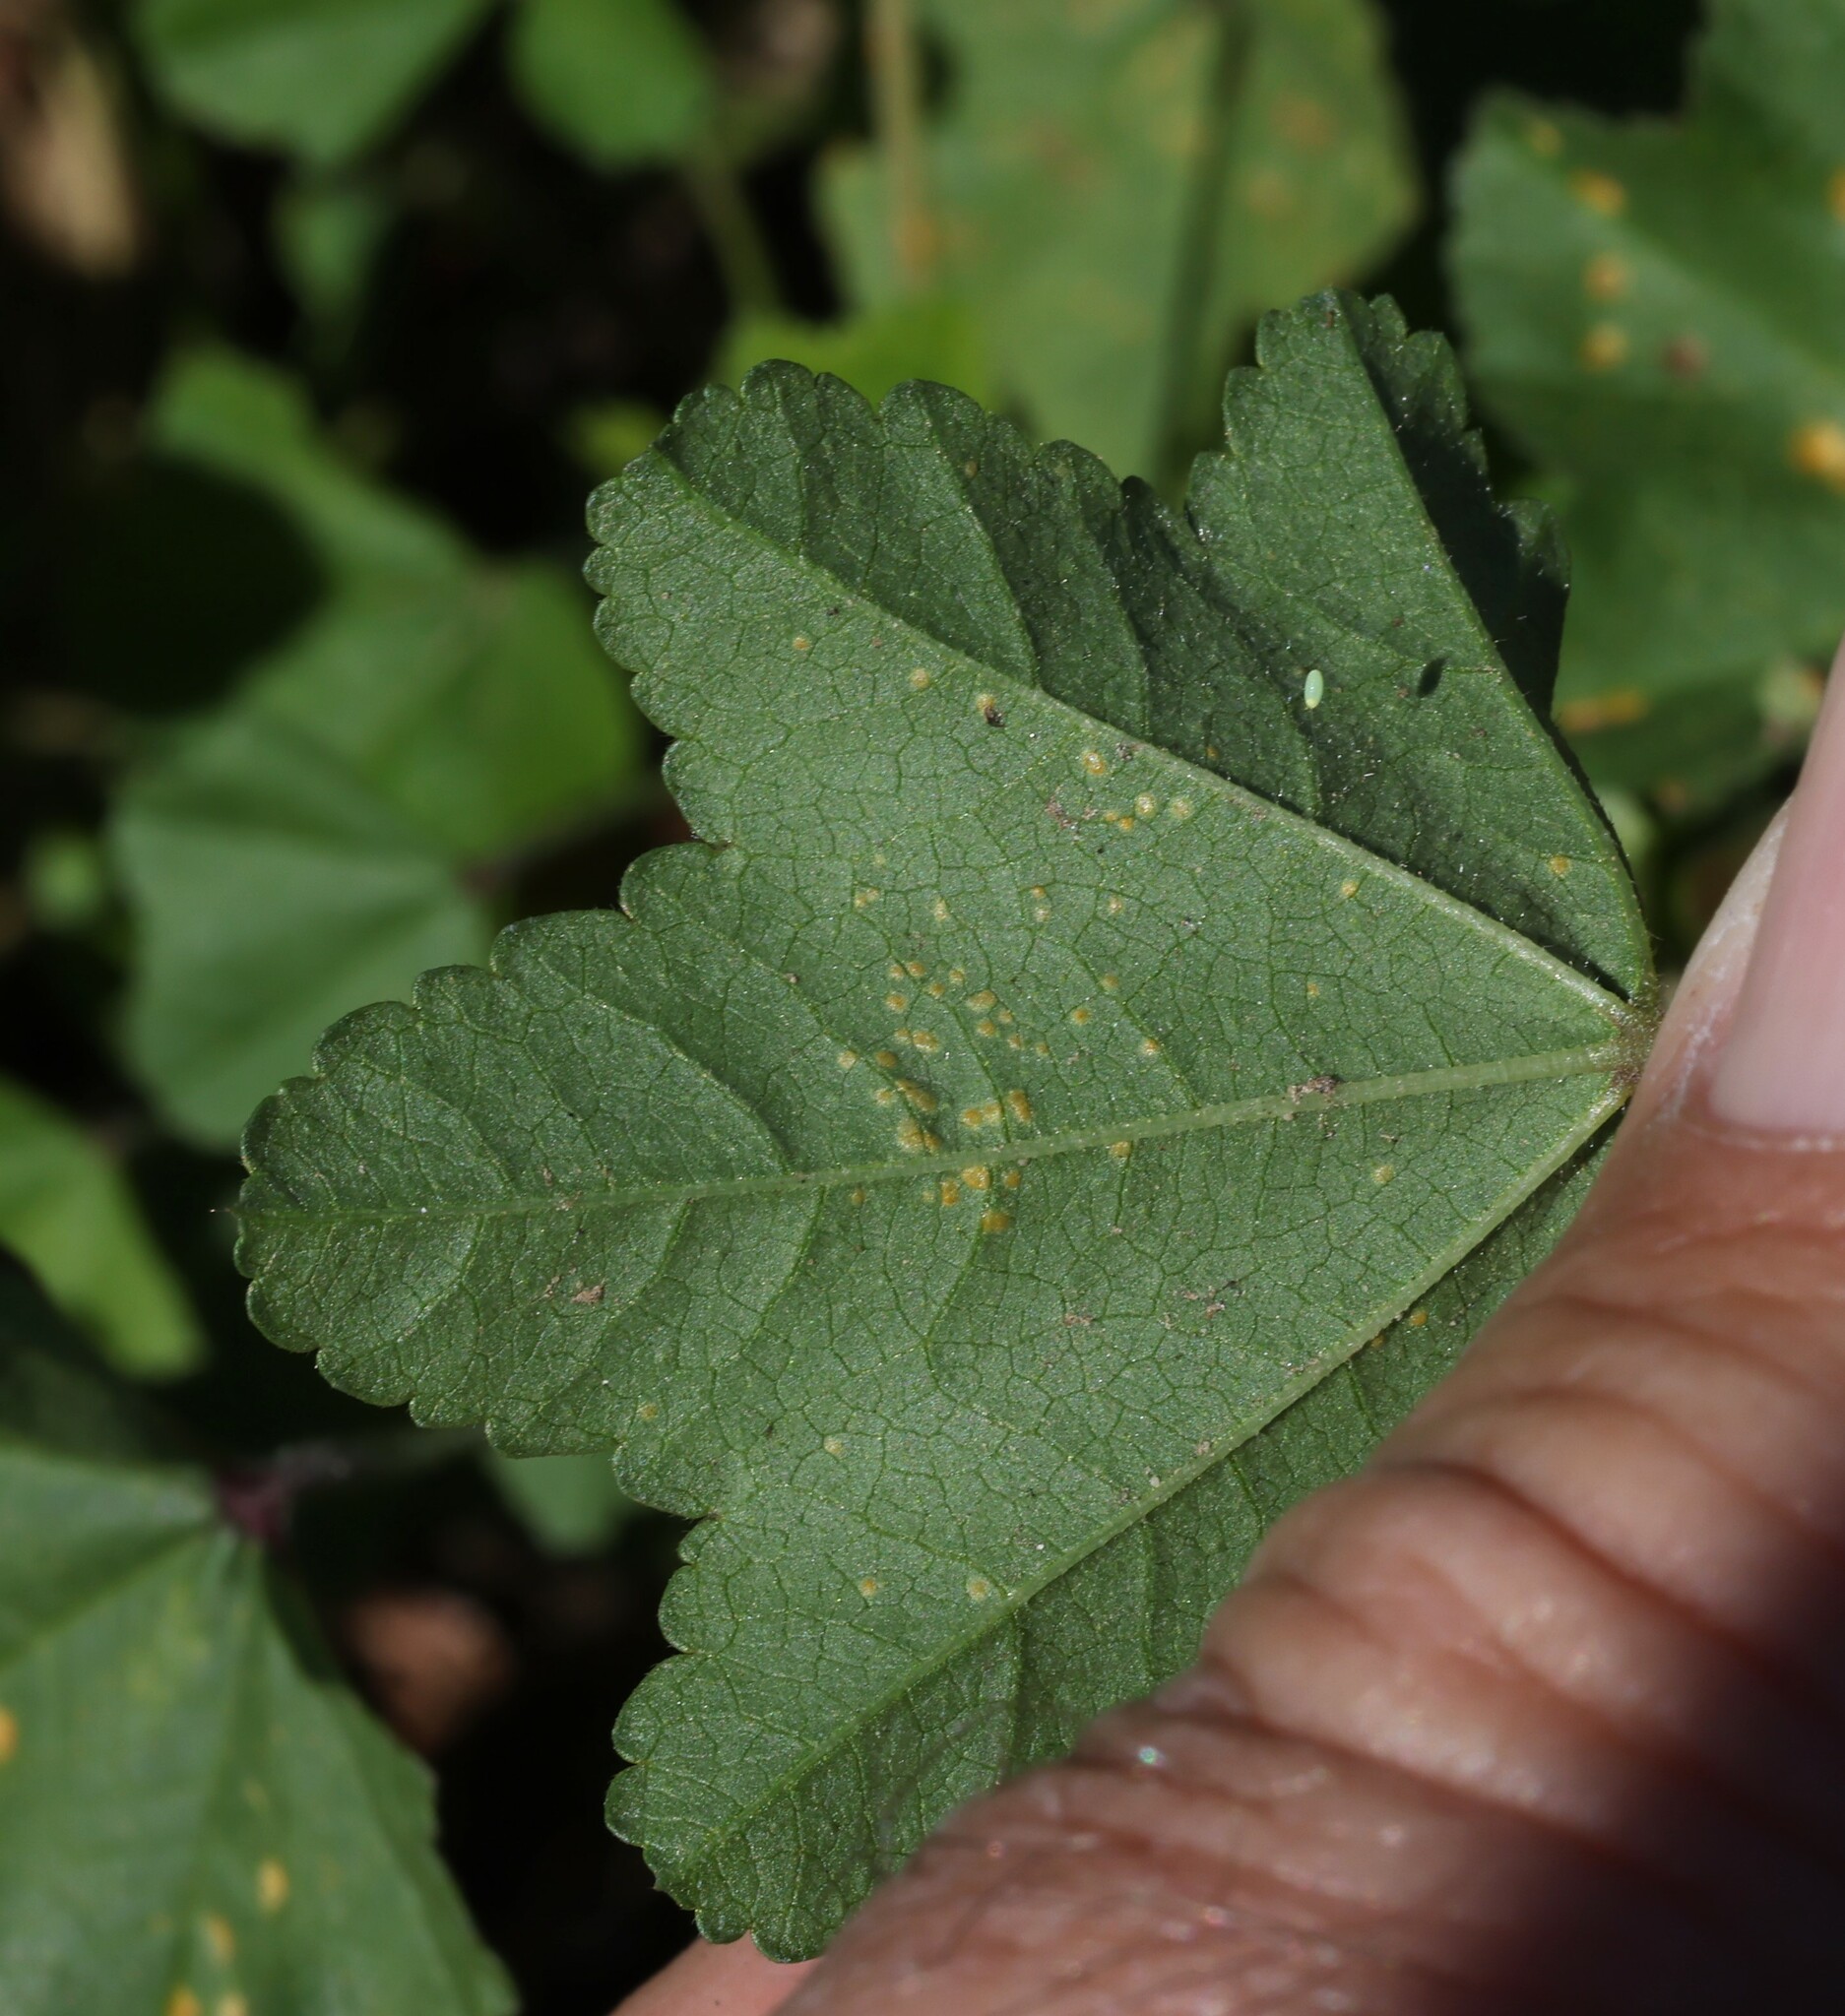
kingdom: Plantae
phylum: Tracheophyta
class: Magnoliopsida
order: Malvales
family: Malvaceae
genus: Malva
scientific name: Malva parviflora
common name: Least mallow
